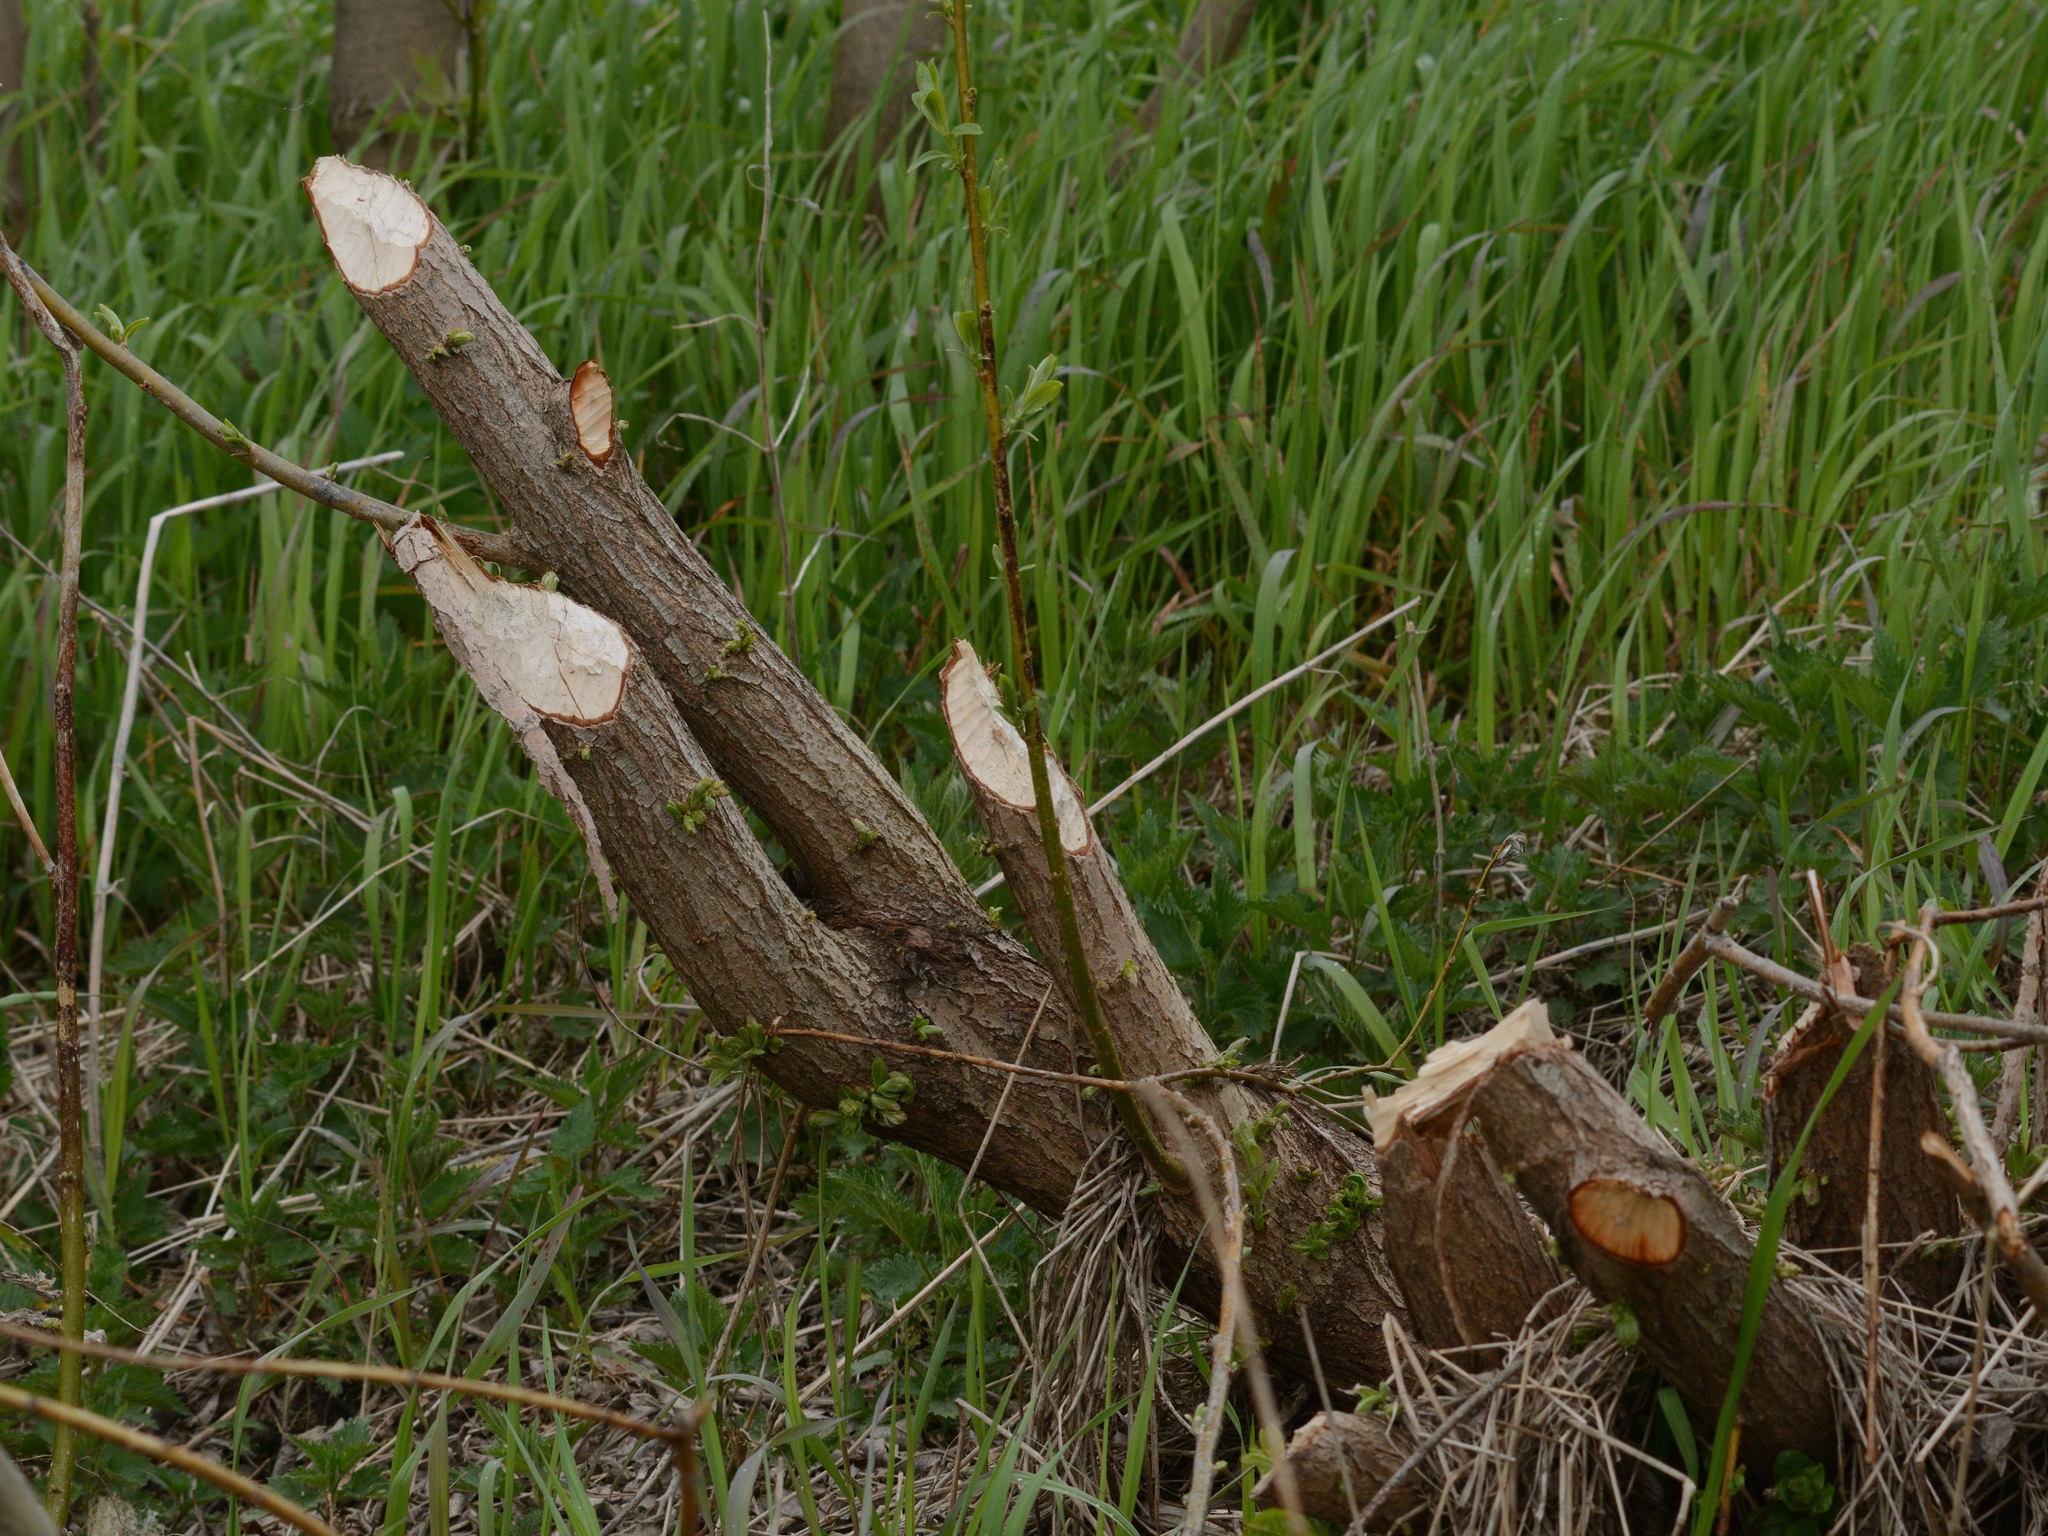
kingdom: Animalia
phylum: Chordata
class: Mammalia
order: Rodentia
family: Castoridae
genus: Castor
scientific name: Castor fiber
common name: Eurasian beaver
